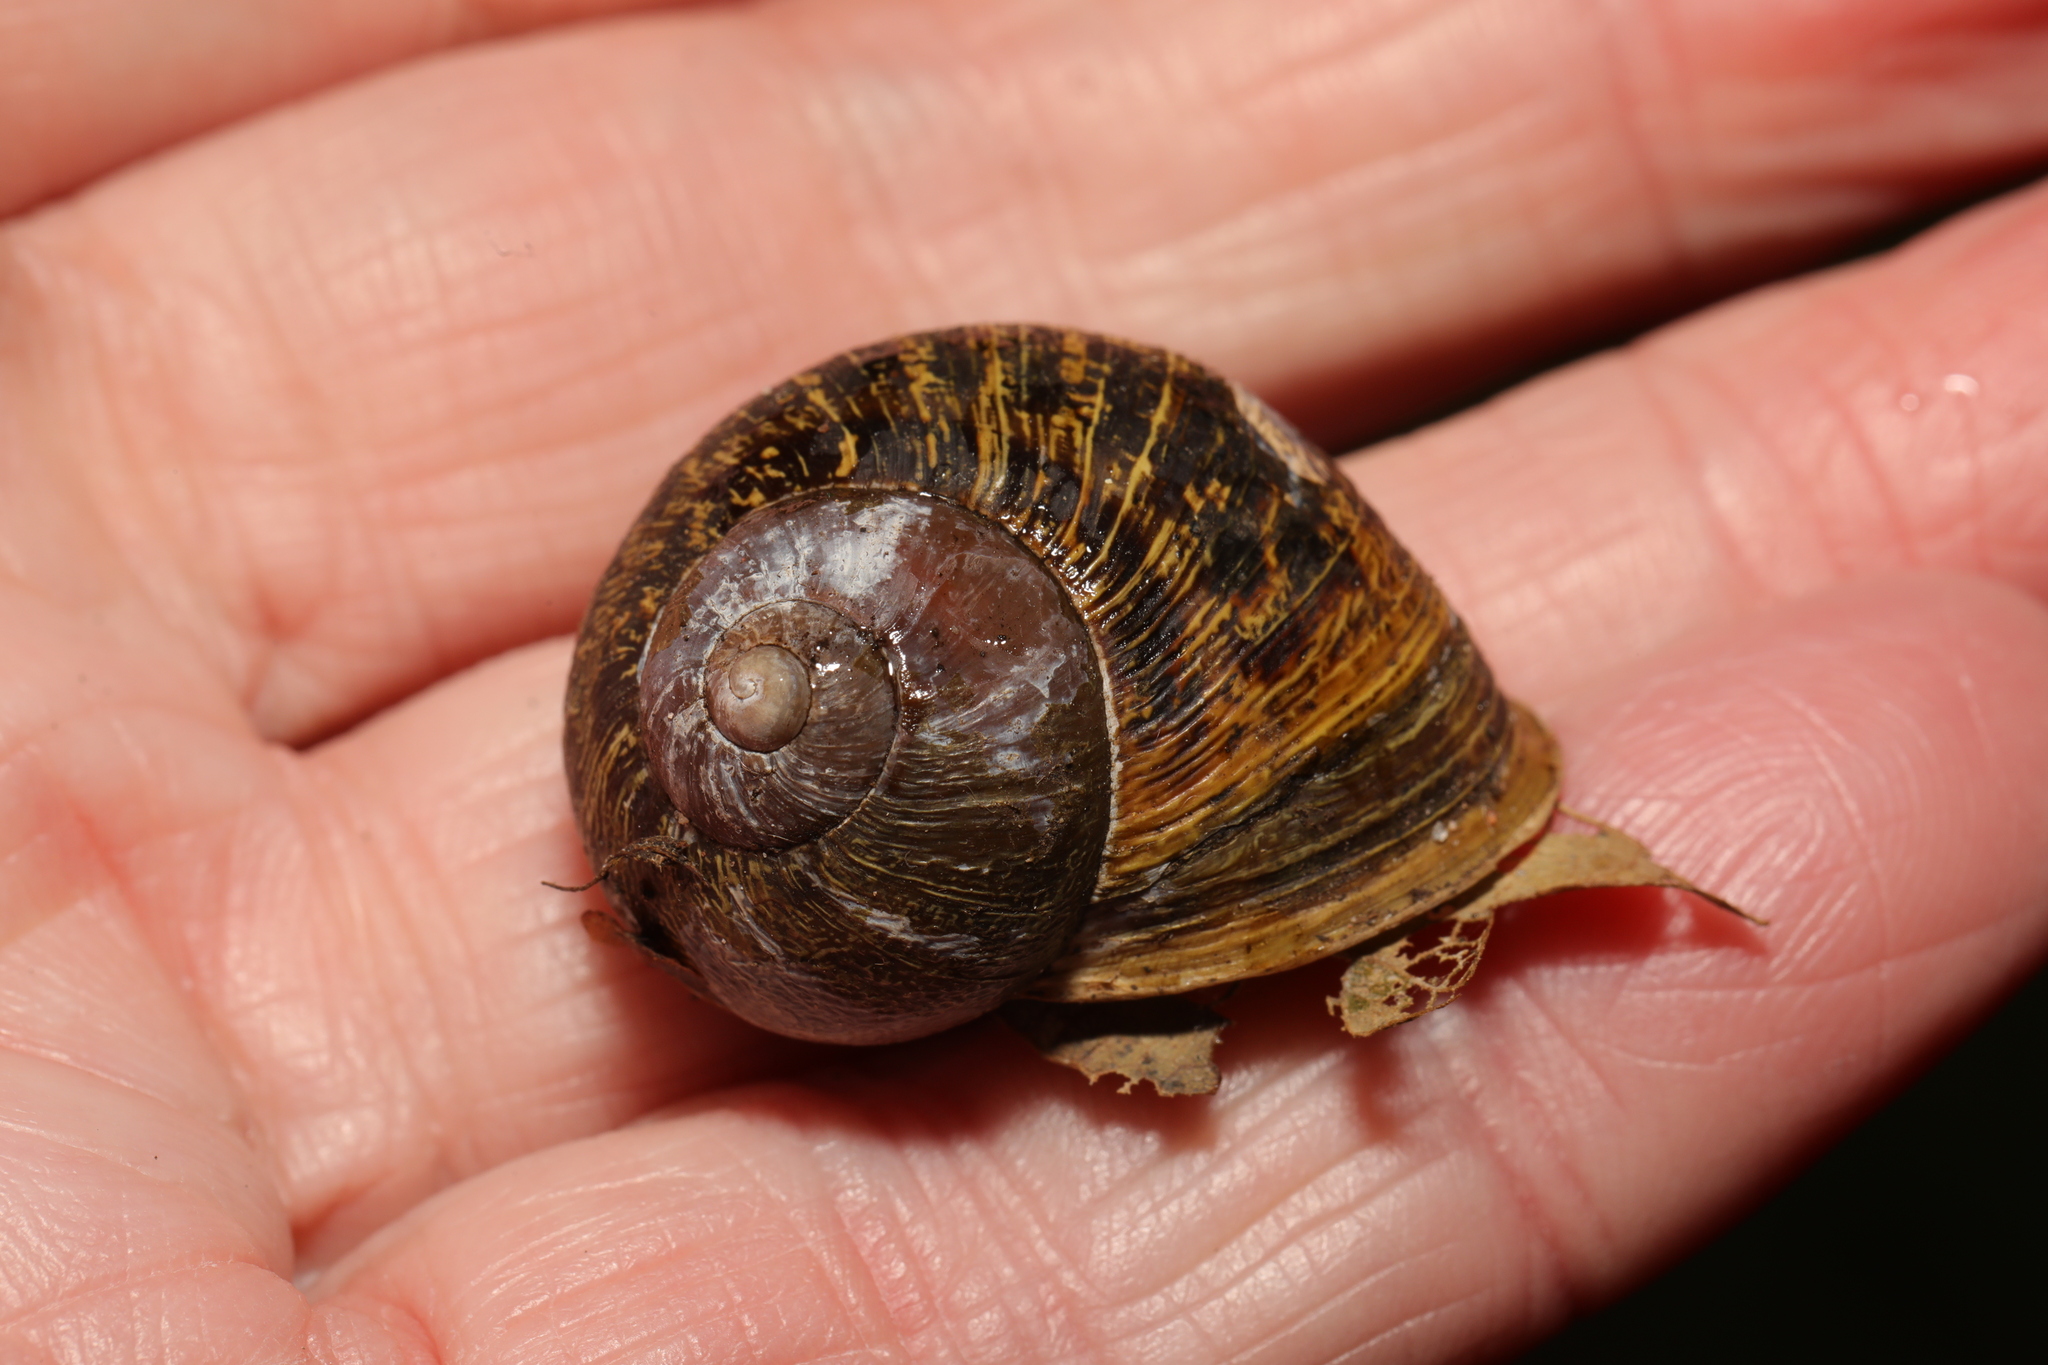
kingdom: Animalia
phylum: Mollusca
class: Gastropoda
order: Stylommatophora
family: Helicidae
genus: Cornu
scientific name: Cornu aspersum
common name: Brown garden snail
